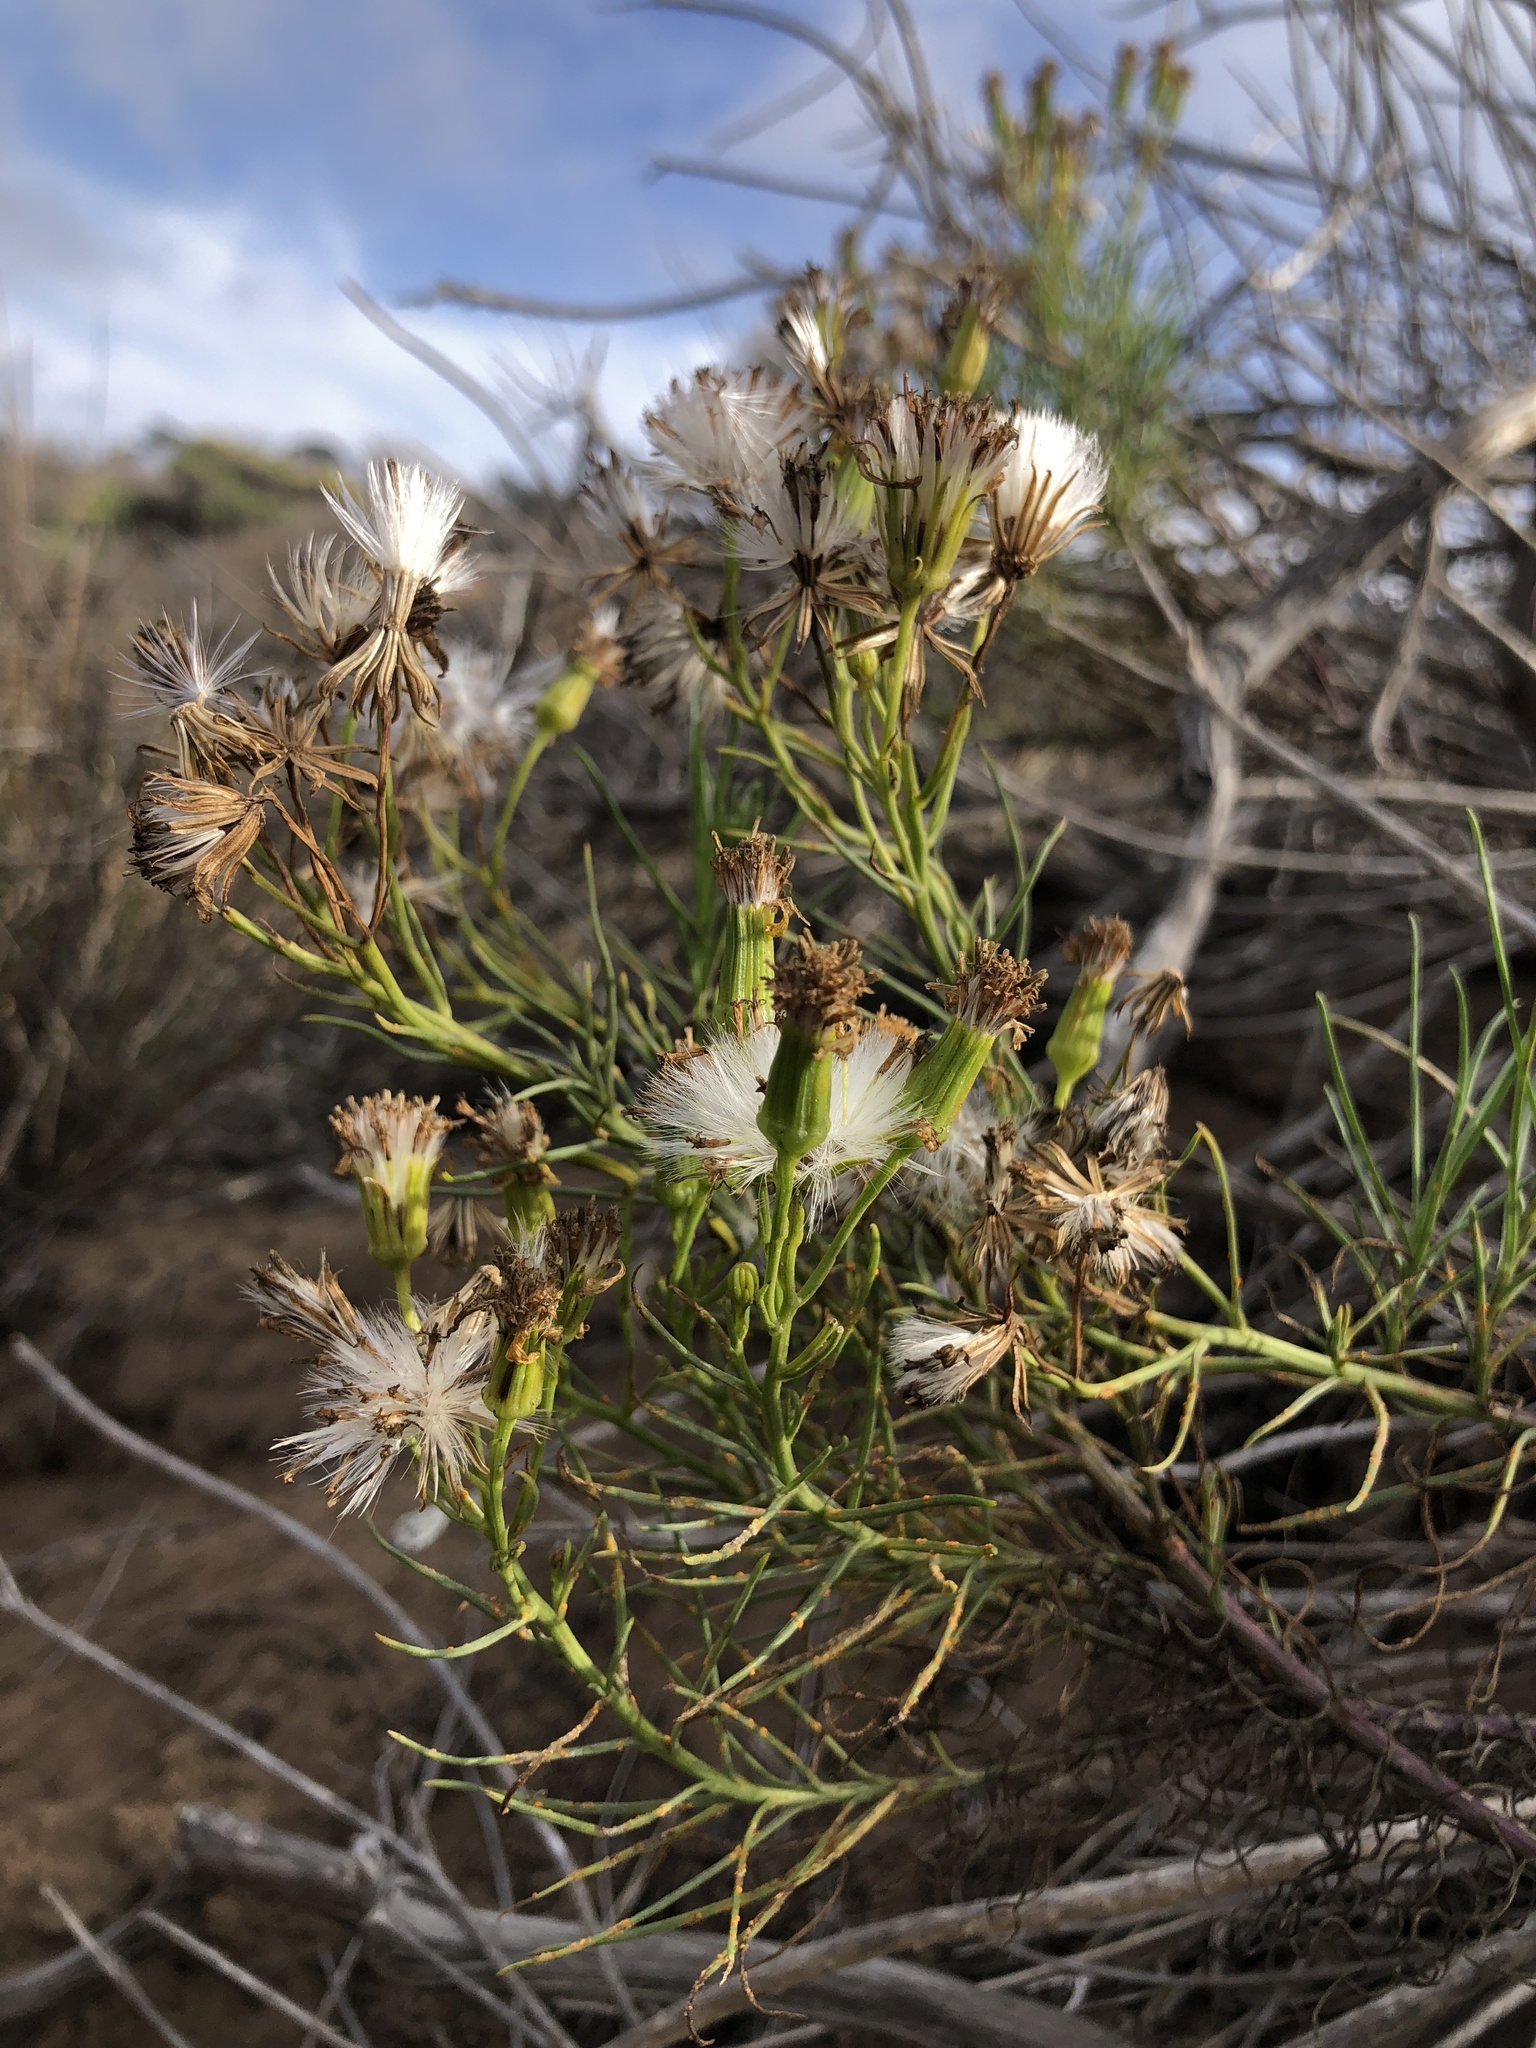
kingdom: Plantae
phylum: Tracheophyta
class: Magnoliopsida
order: Asterales
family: Asteraceae
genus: Senecio
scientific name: Senecio blochmaniae
